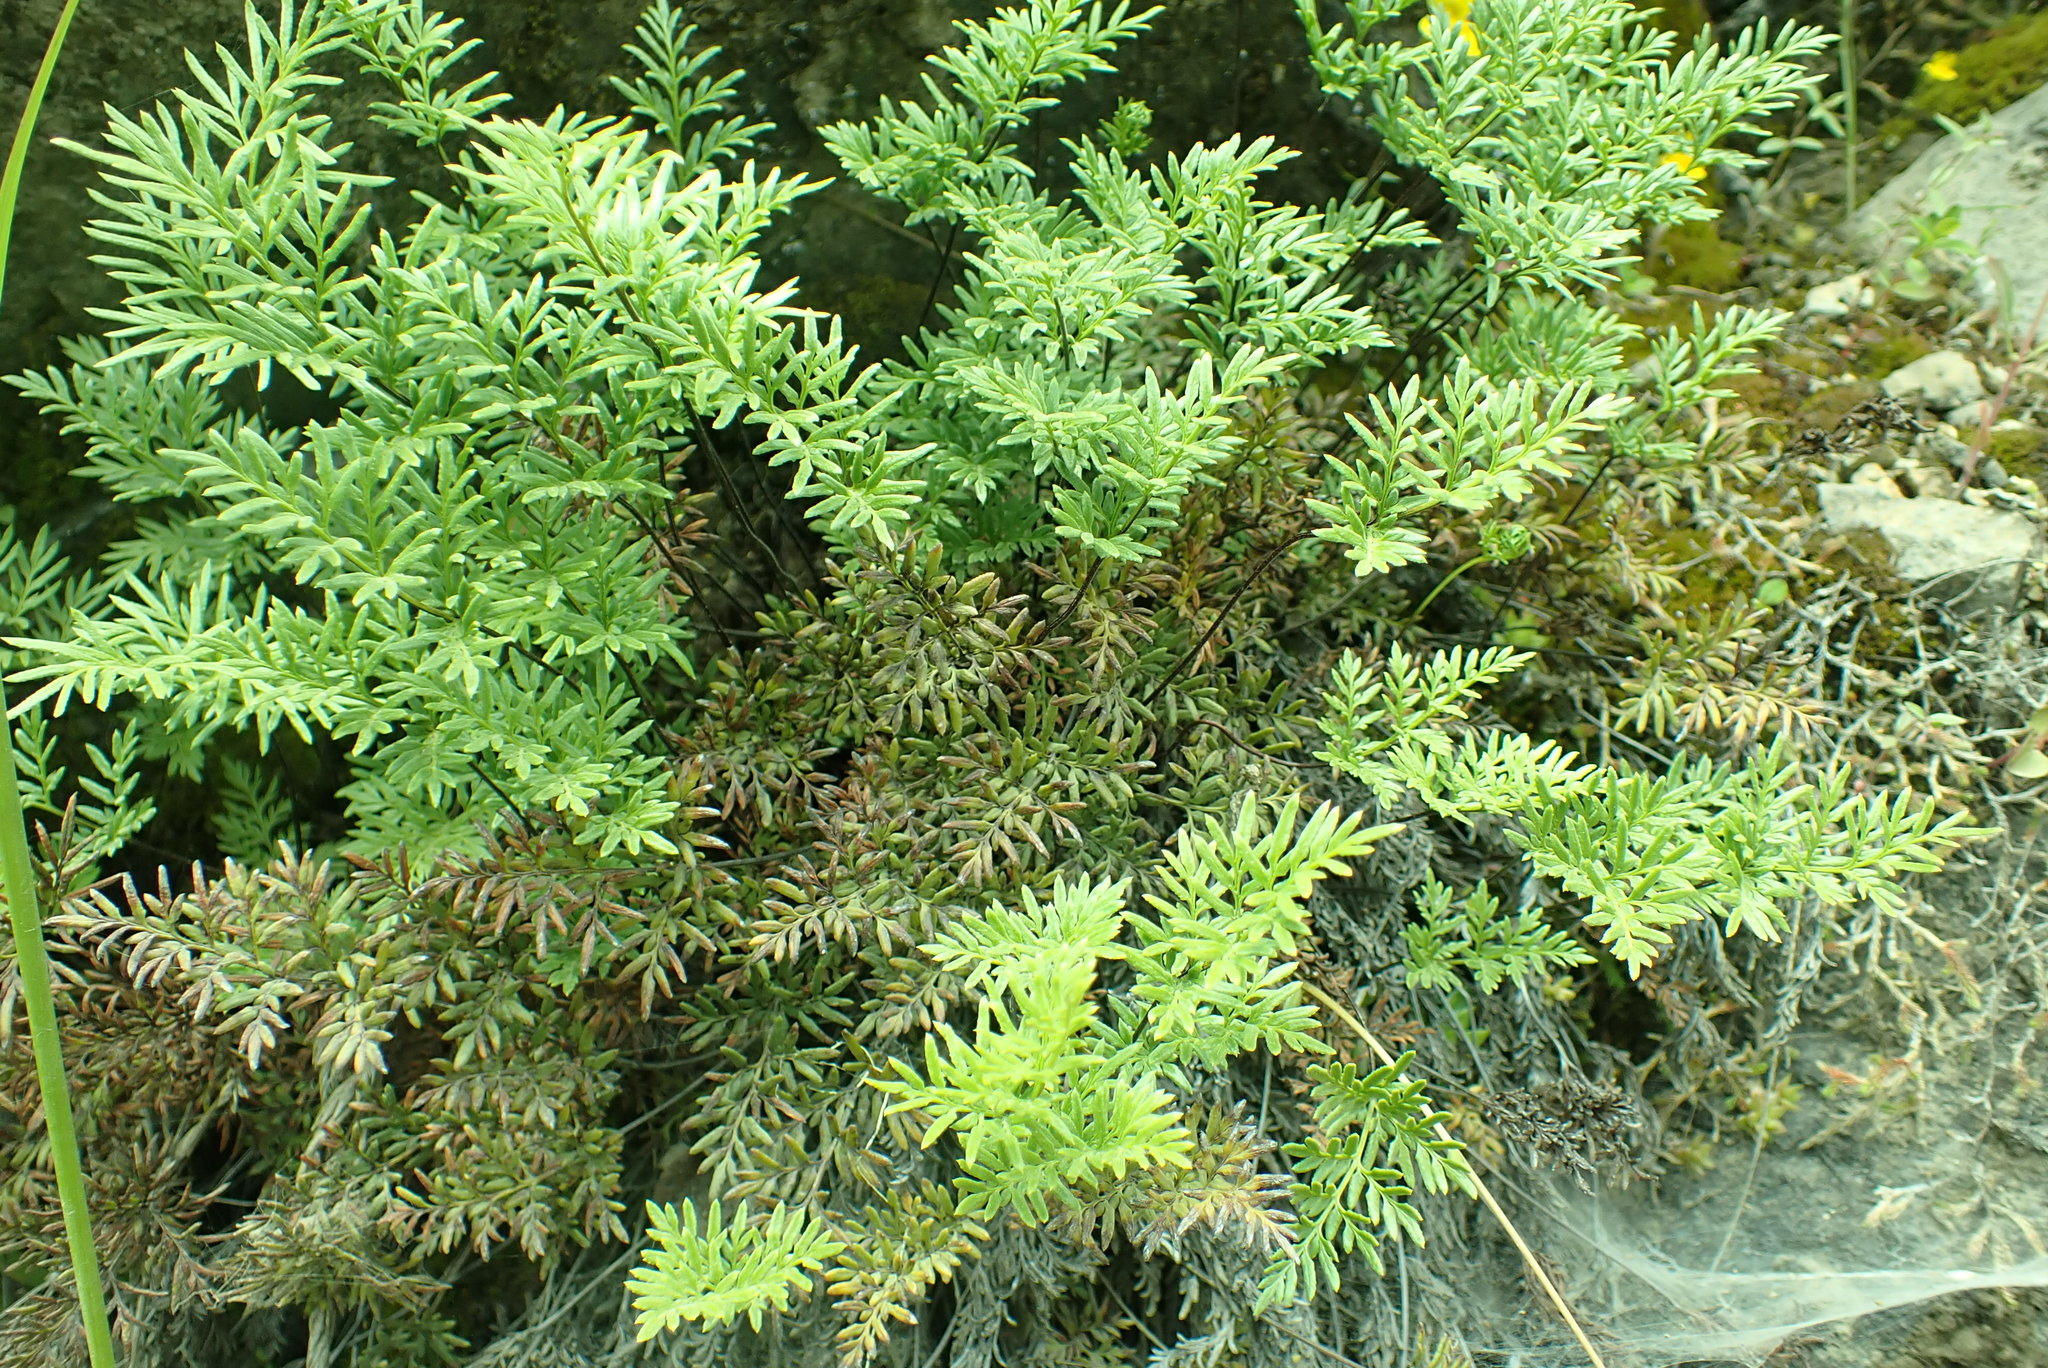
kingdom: Plantae
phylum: Tracheophyta
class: Polypodiopsida
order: Polypodiales
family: Pteridaceae
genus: Aspidotis
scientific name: Aspidotis densa
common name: Indian's dream
